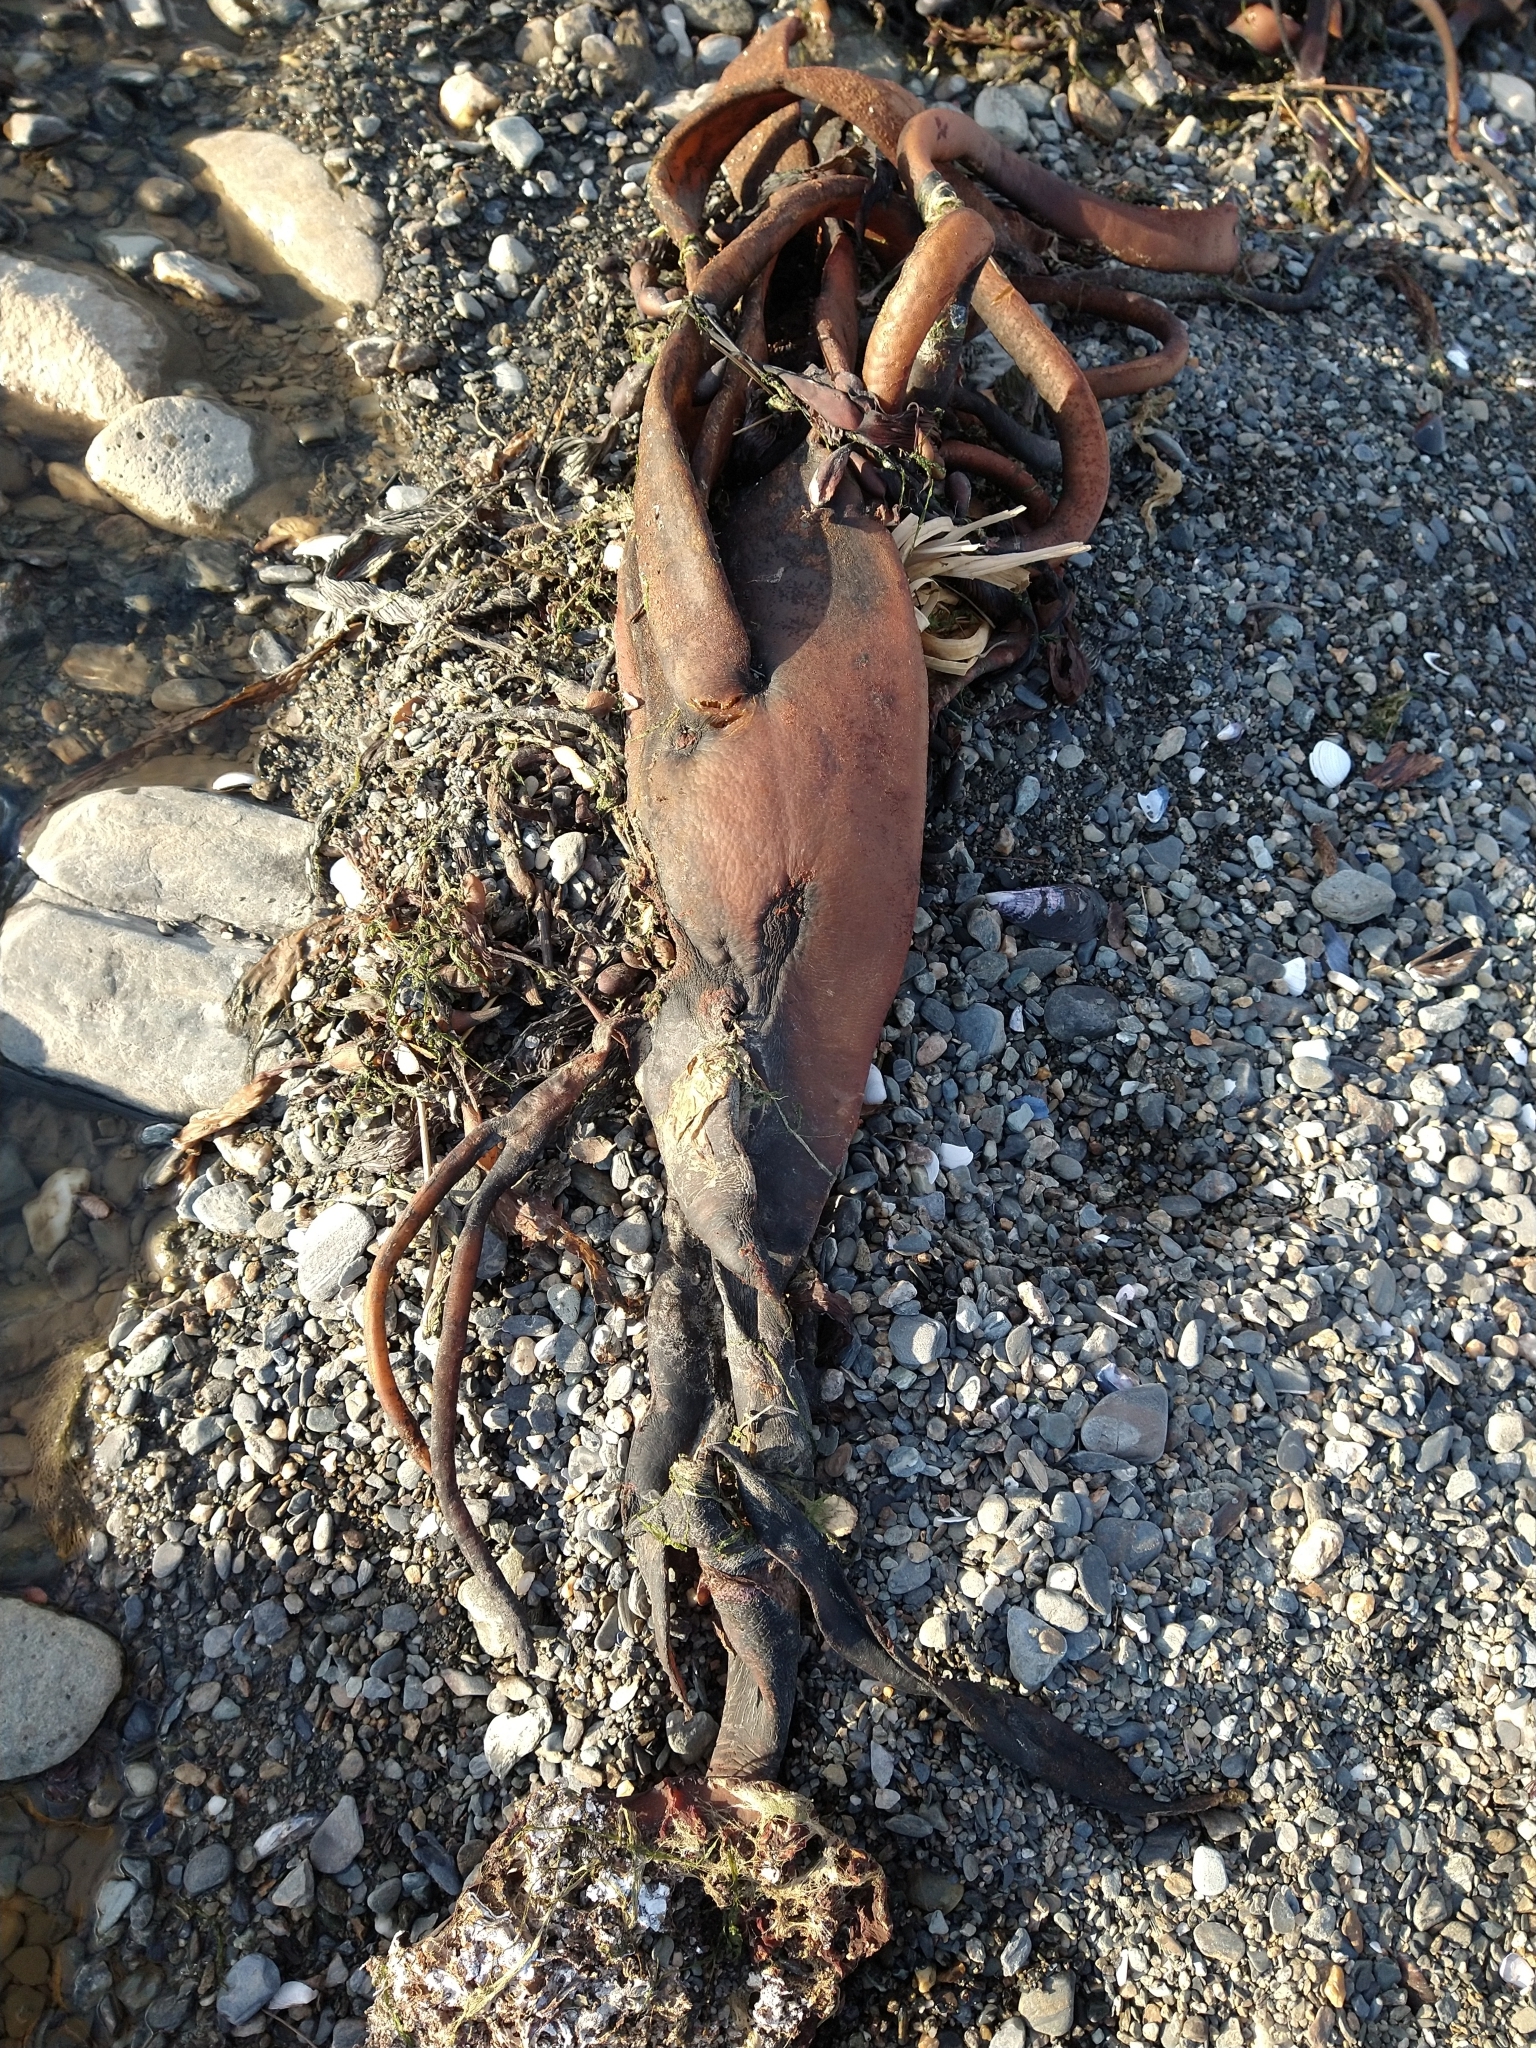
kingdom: Chromista
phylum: Ochrophyta
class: Phaeophyceae
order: Fucales
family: Durvillaeaceae
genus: Durvillaea
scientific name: Durvillaea antarctica
